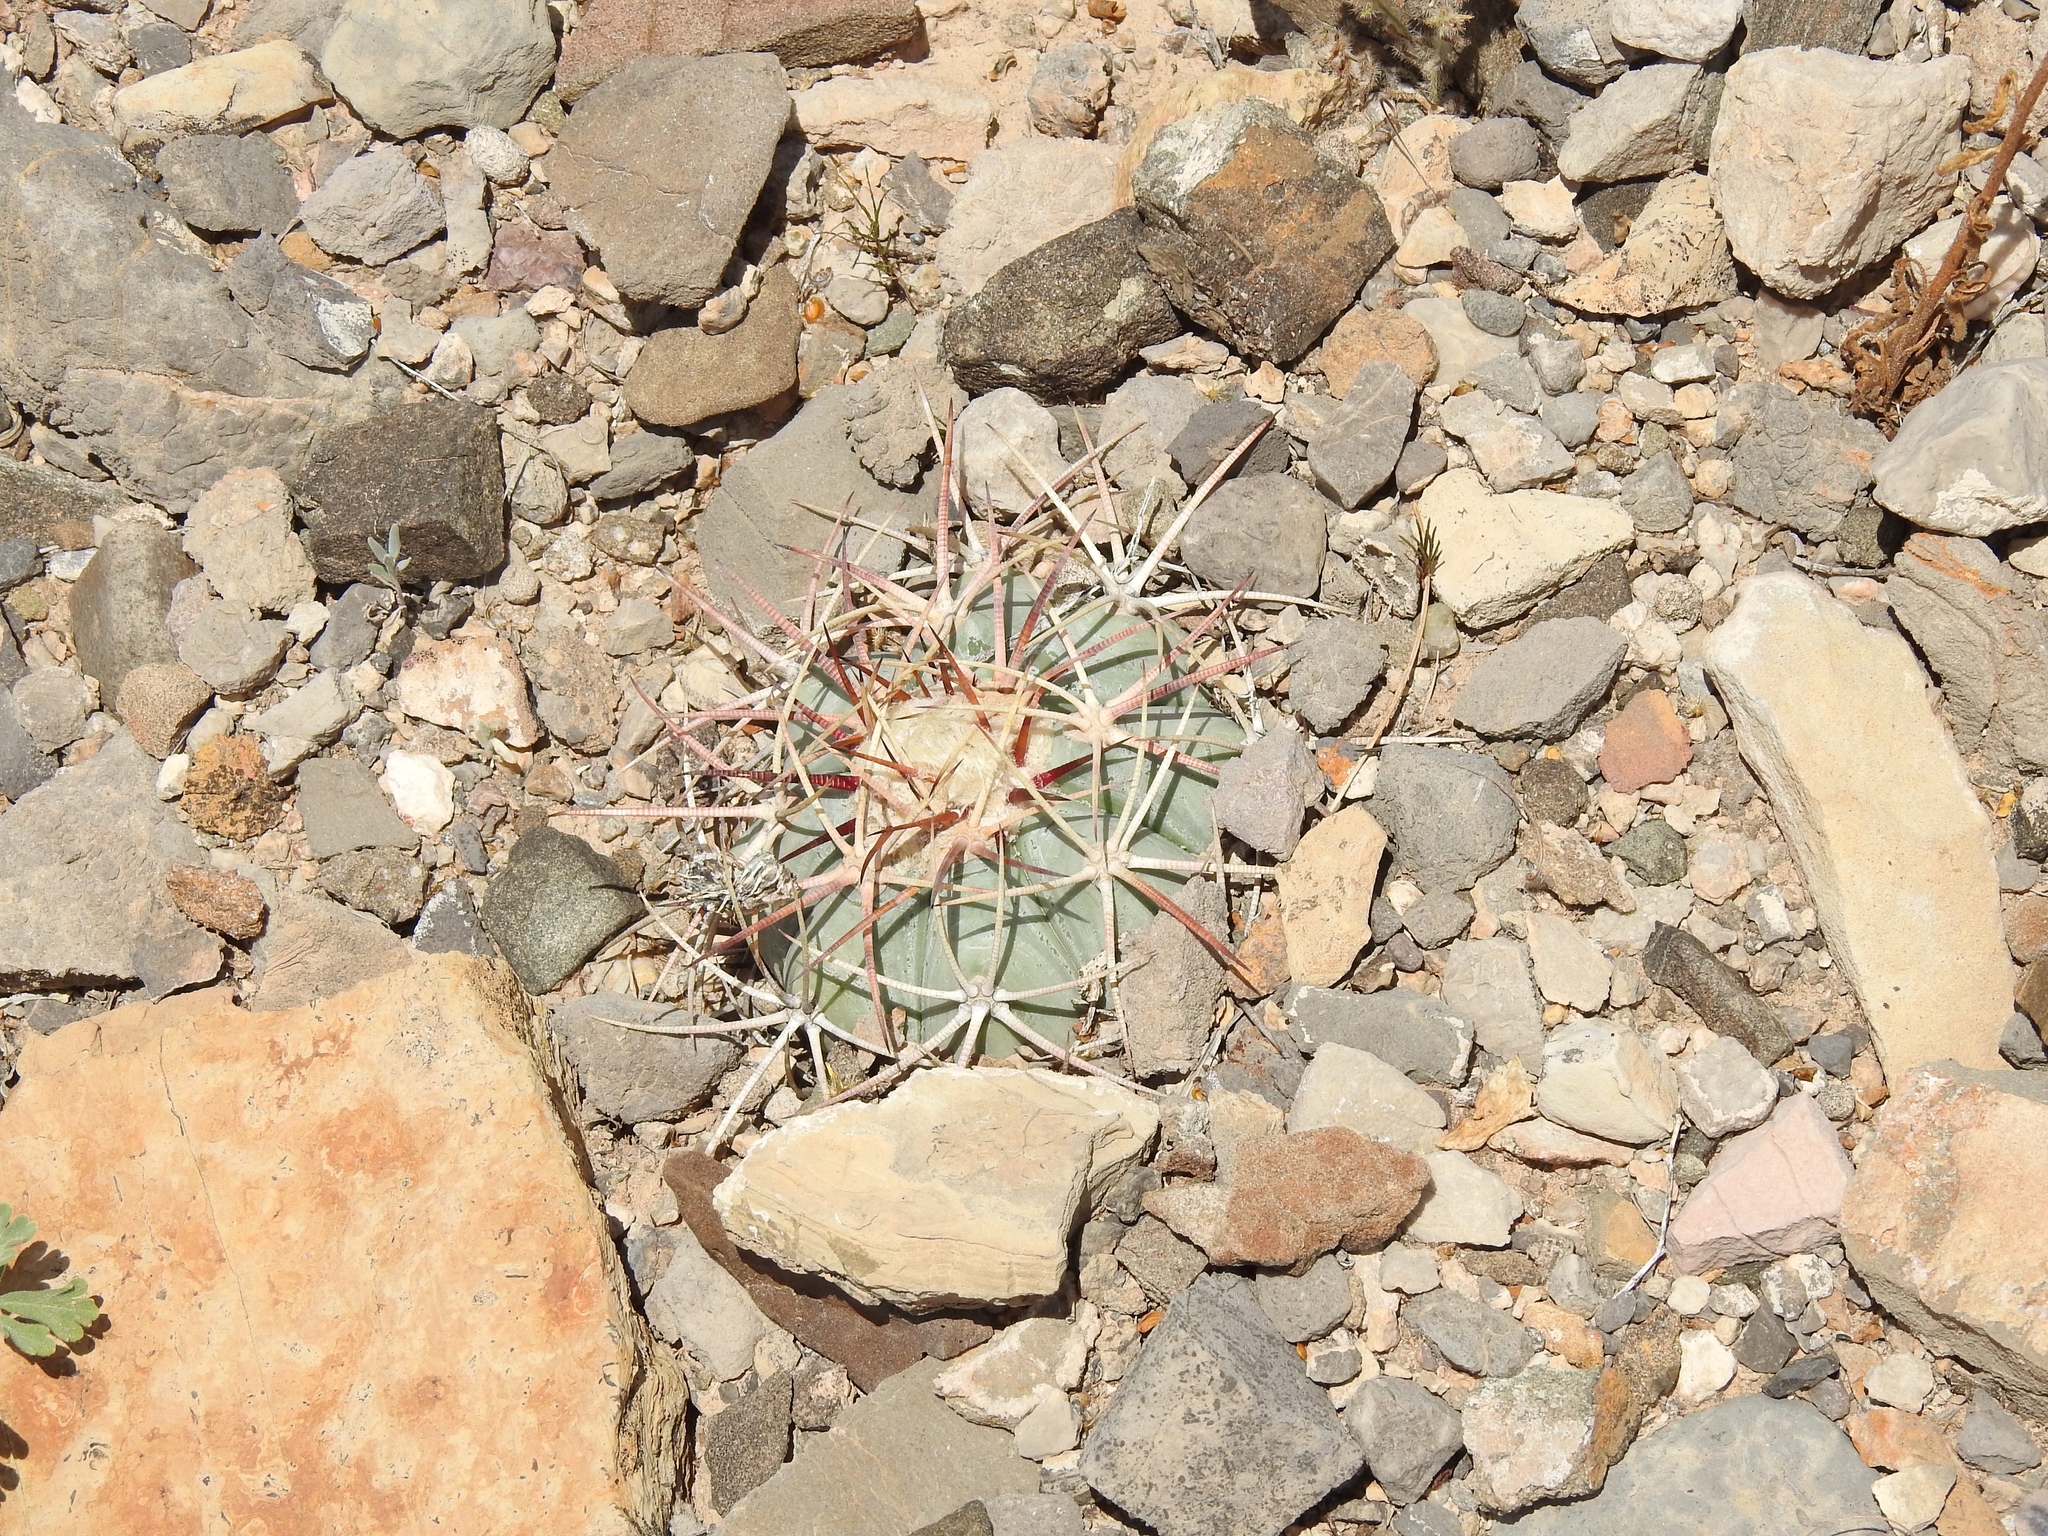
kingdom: Plantae
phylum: Tracheophyta
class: Magnoliopsida
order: Caryophyllales
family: Cactaceae
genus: Echinocactus
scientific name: Echinocactus horizonthalonius
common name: Devilshead
